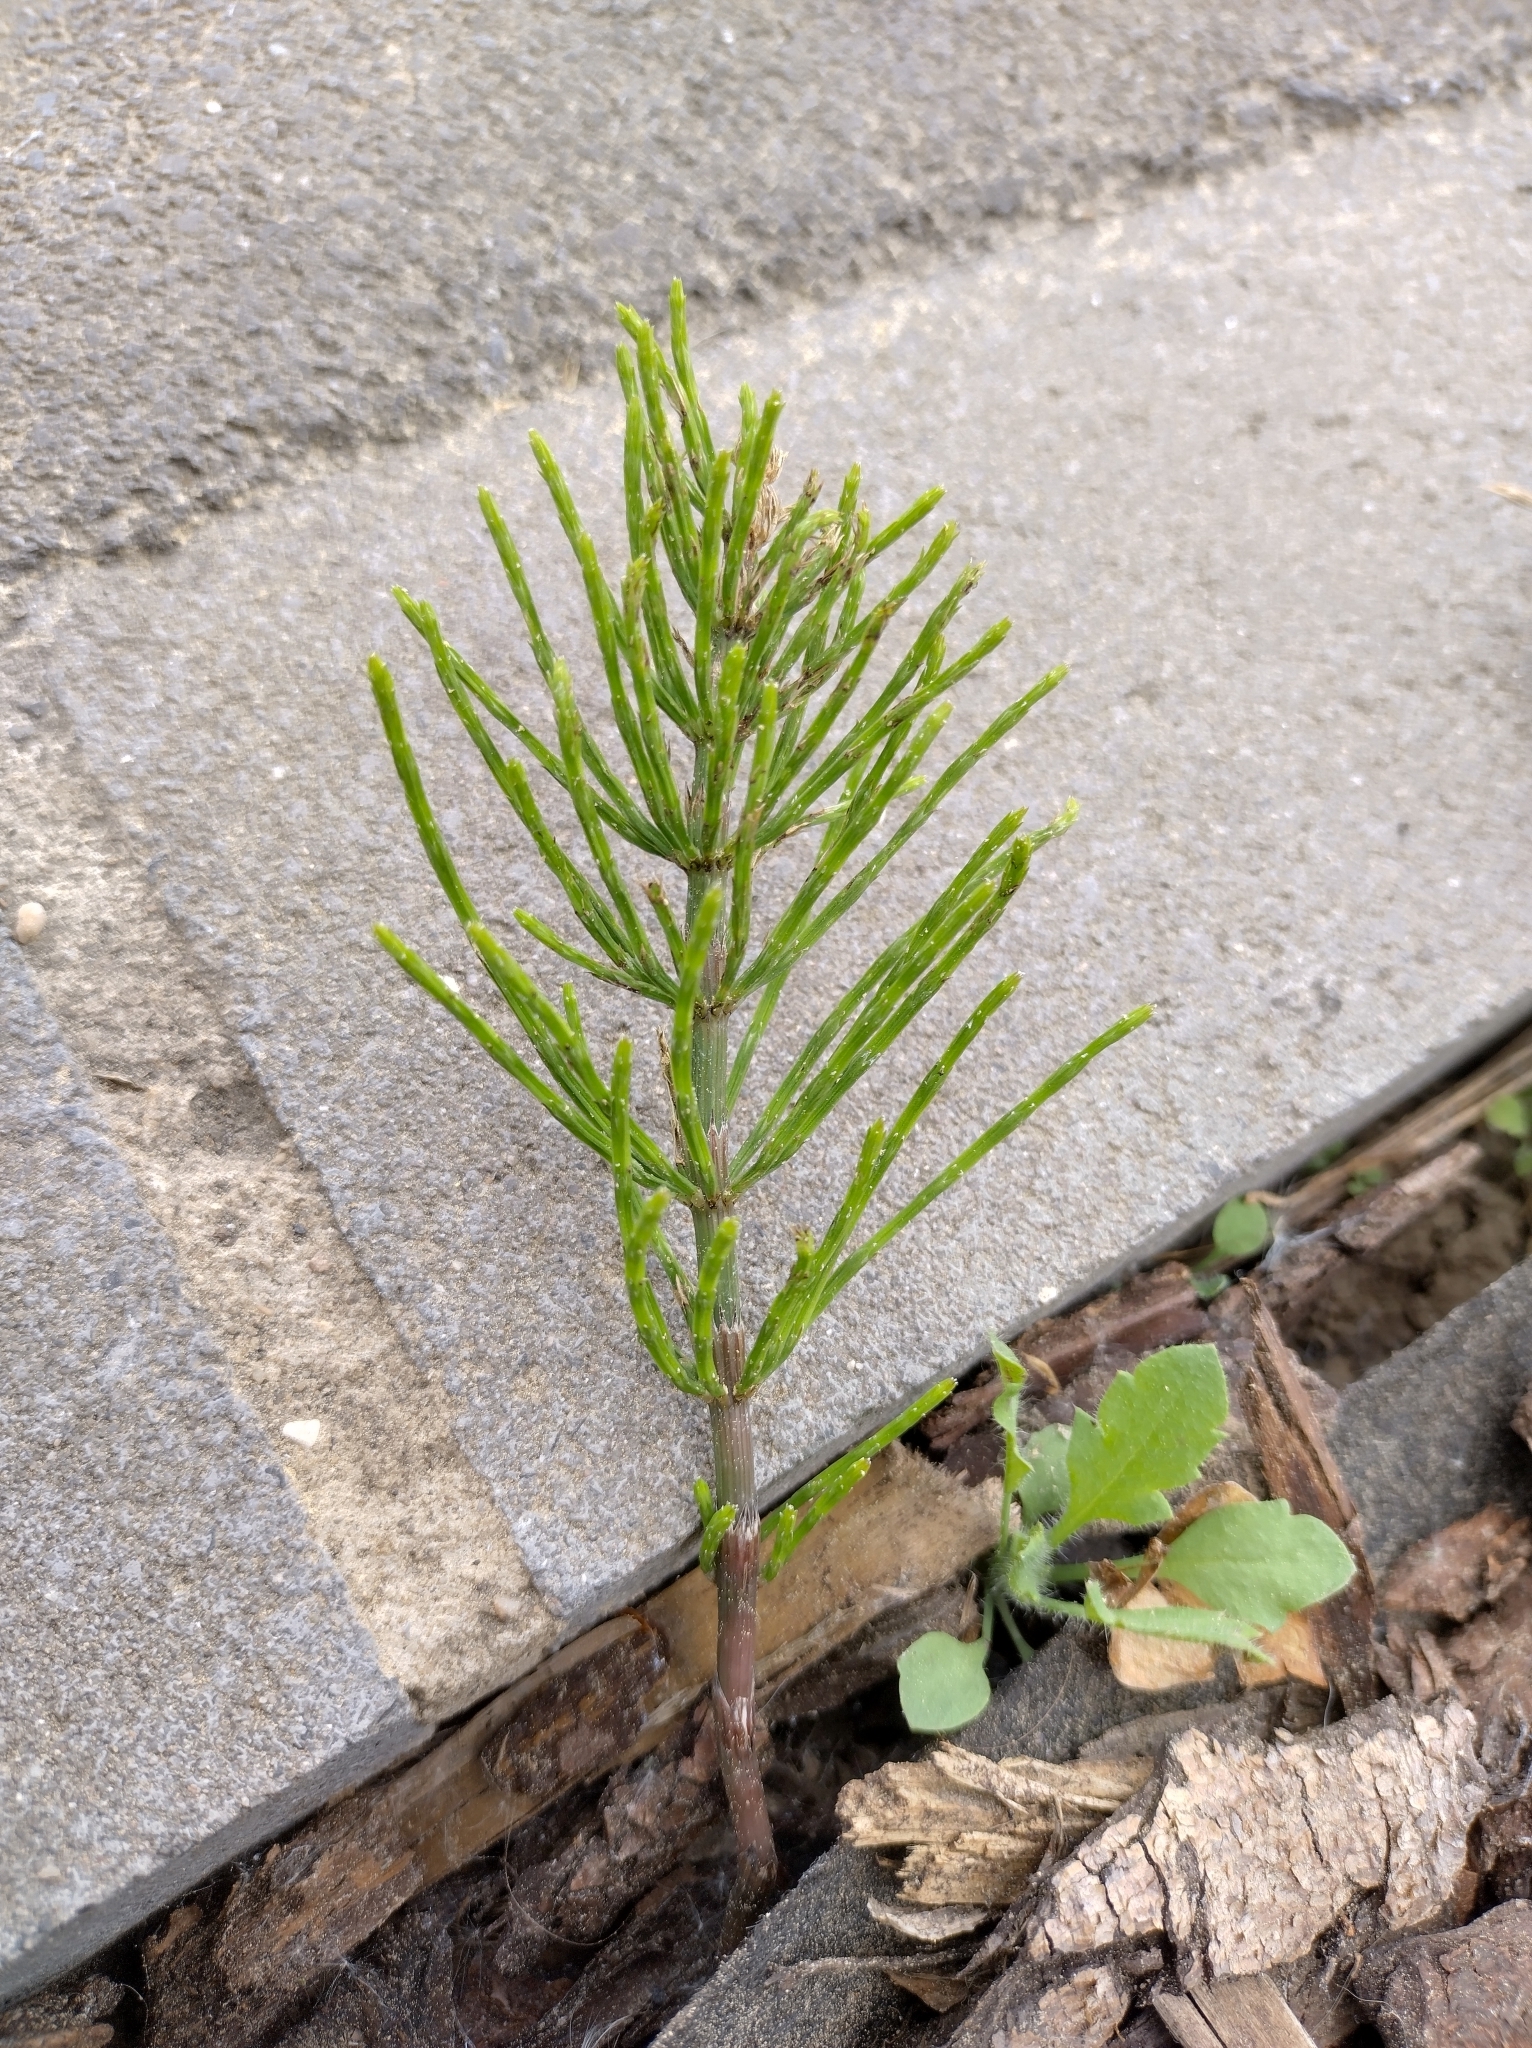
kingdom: Plantae
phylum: Tracheophyta
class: Polypodiopsida
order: Equisetales
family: Equisetaceae
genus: Equisetum
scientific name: Equisetum arvense
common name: Field horsetail
